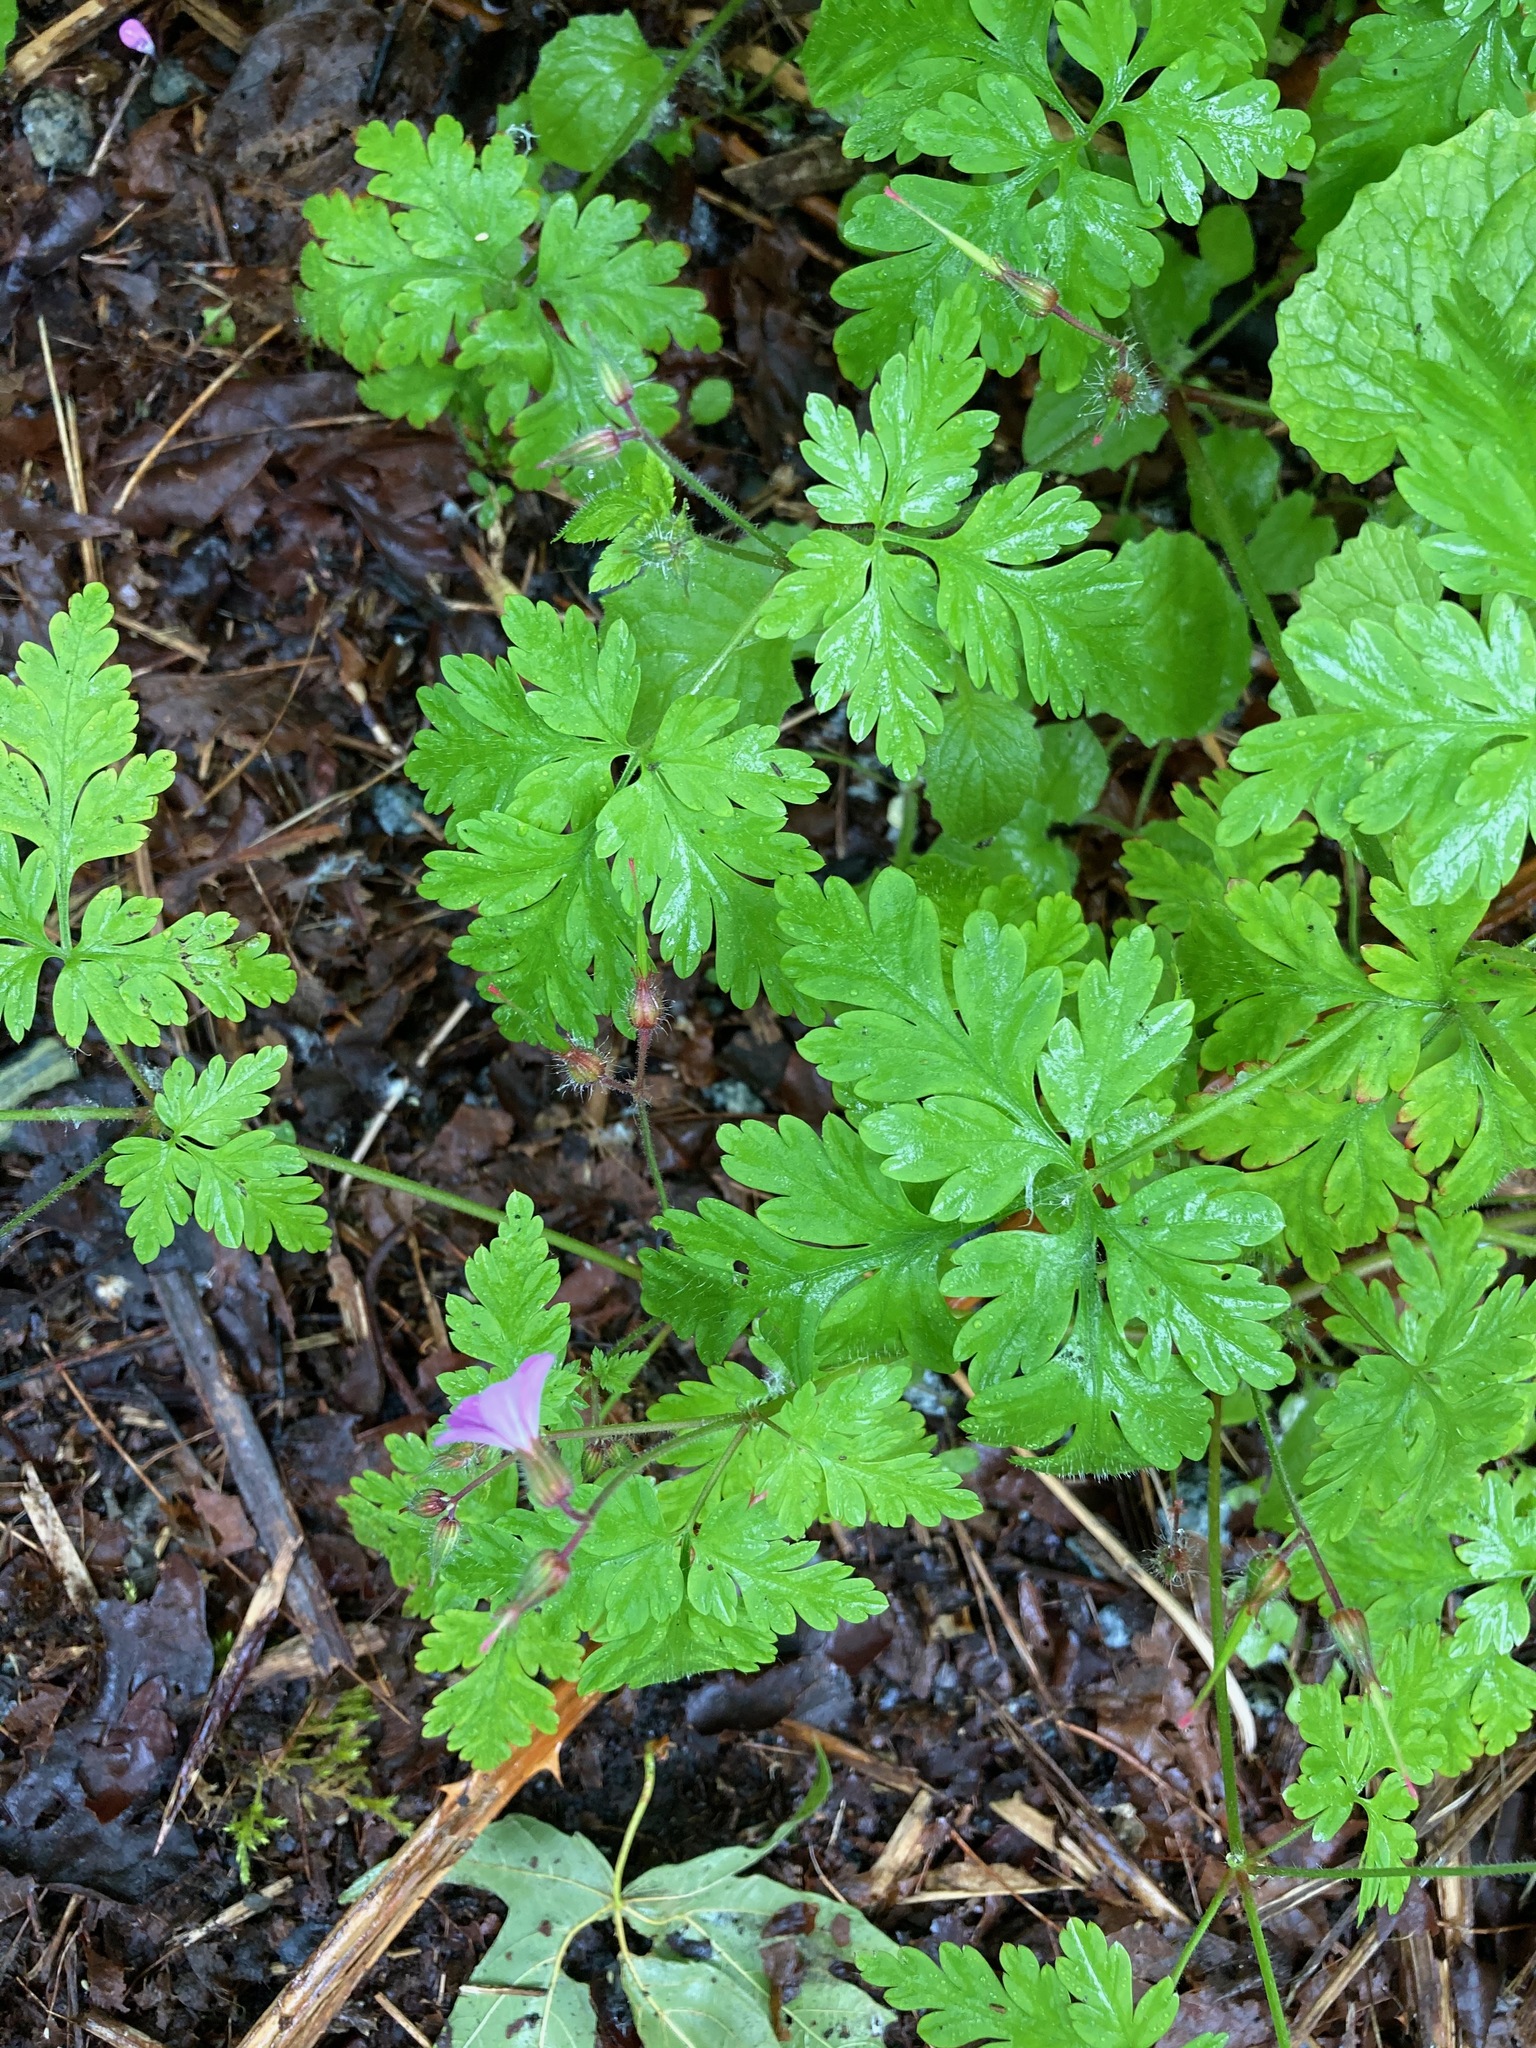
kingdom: Plantae
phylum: Tracheophyta
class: Magnoliopsida
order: Geraniales
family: Geraniaceae
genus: Geranium
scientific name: Geranium robertianum
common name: Herb-robert
